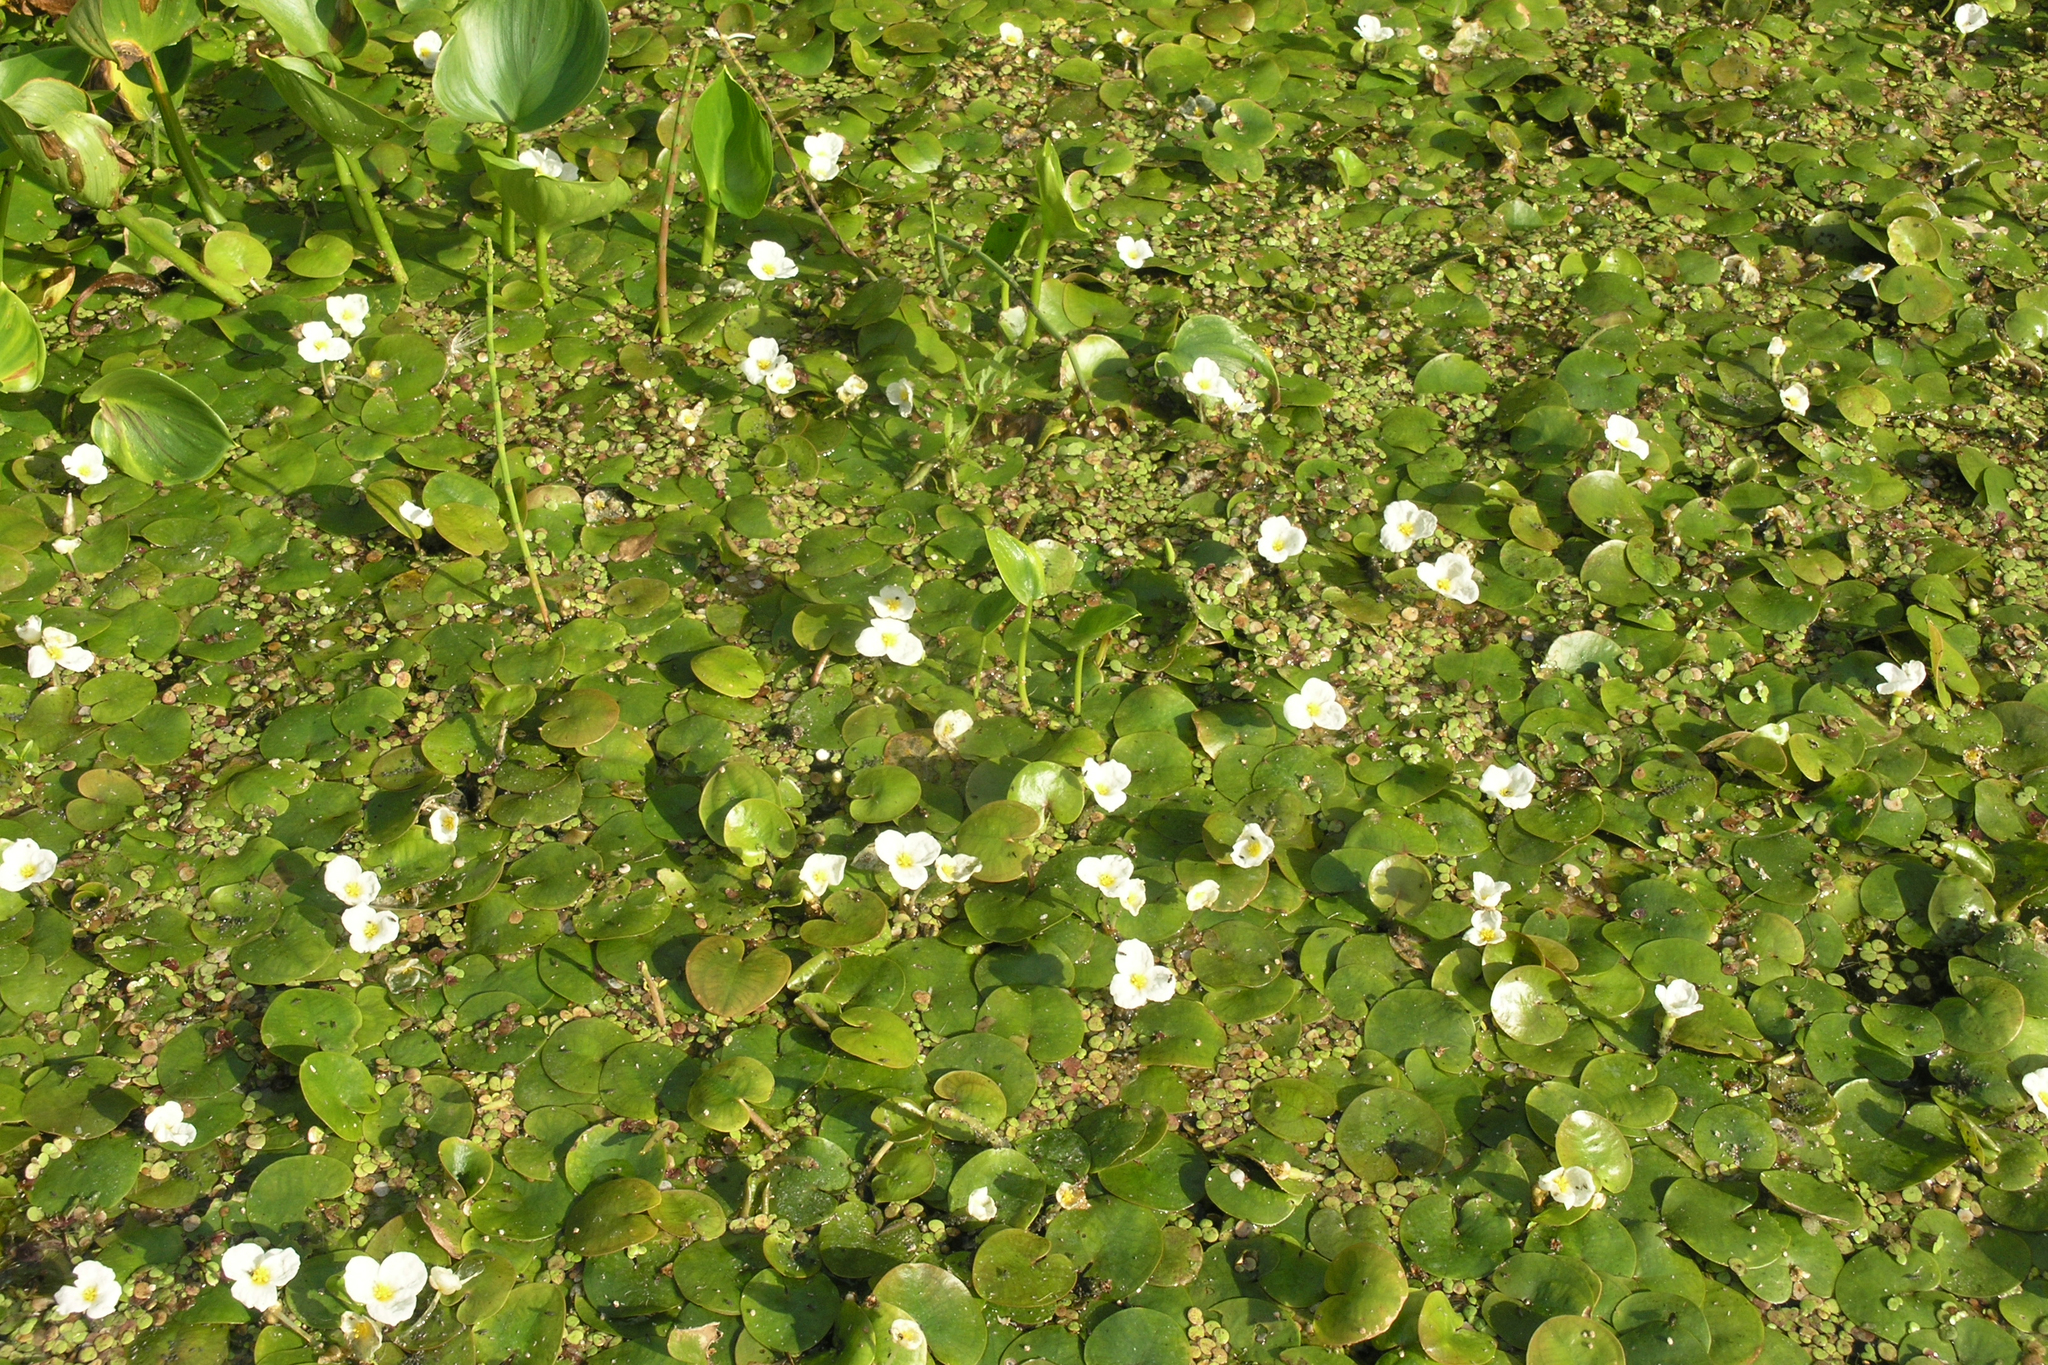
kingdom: Plantae
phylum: Tracheophyta
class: Liliopsida
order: Alismatales
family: Hydrocharitaceae
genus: Hydrocharis
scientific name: Hydrocharis morsus-ranae
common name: Frogbit
